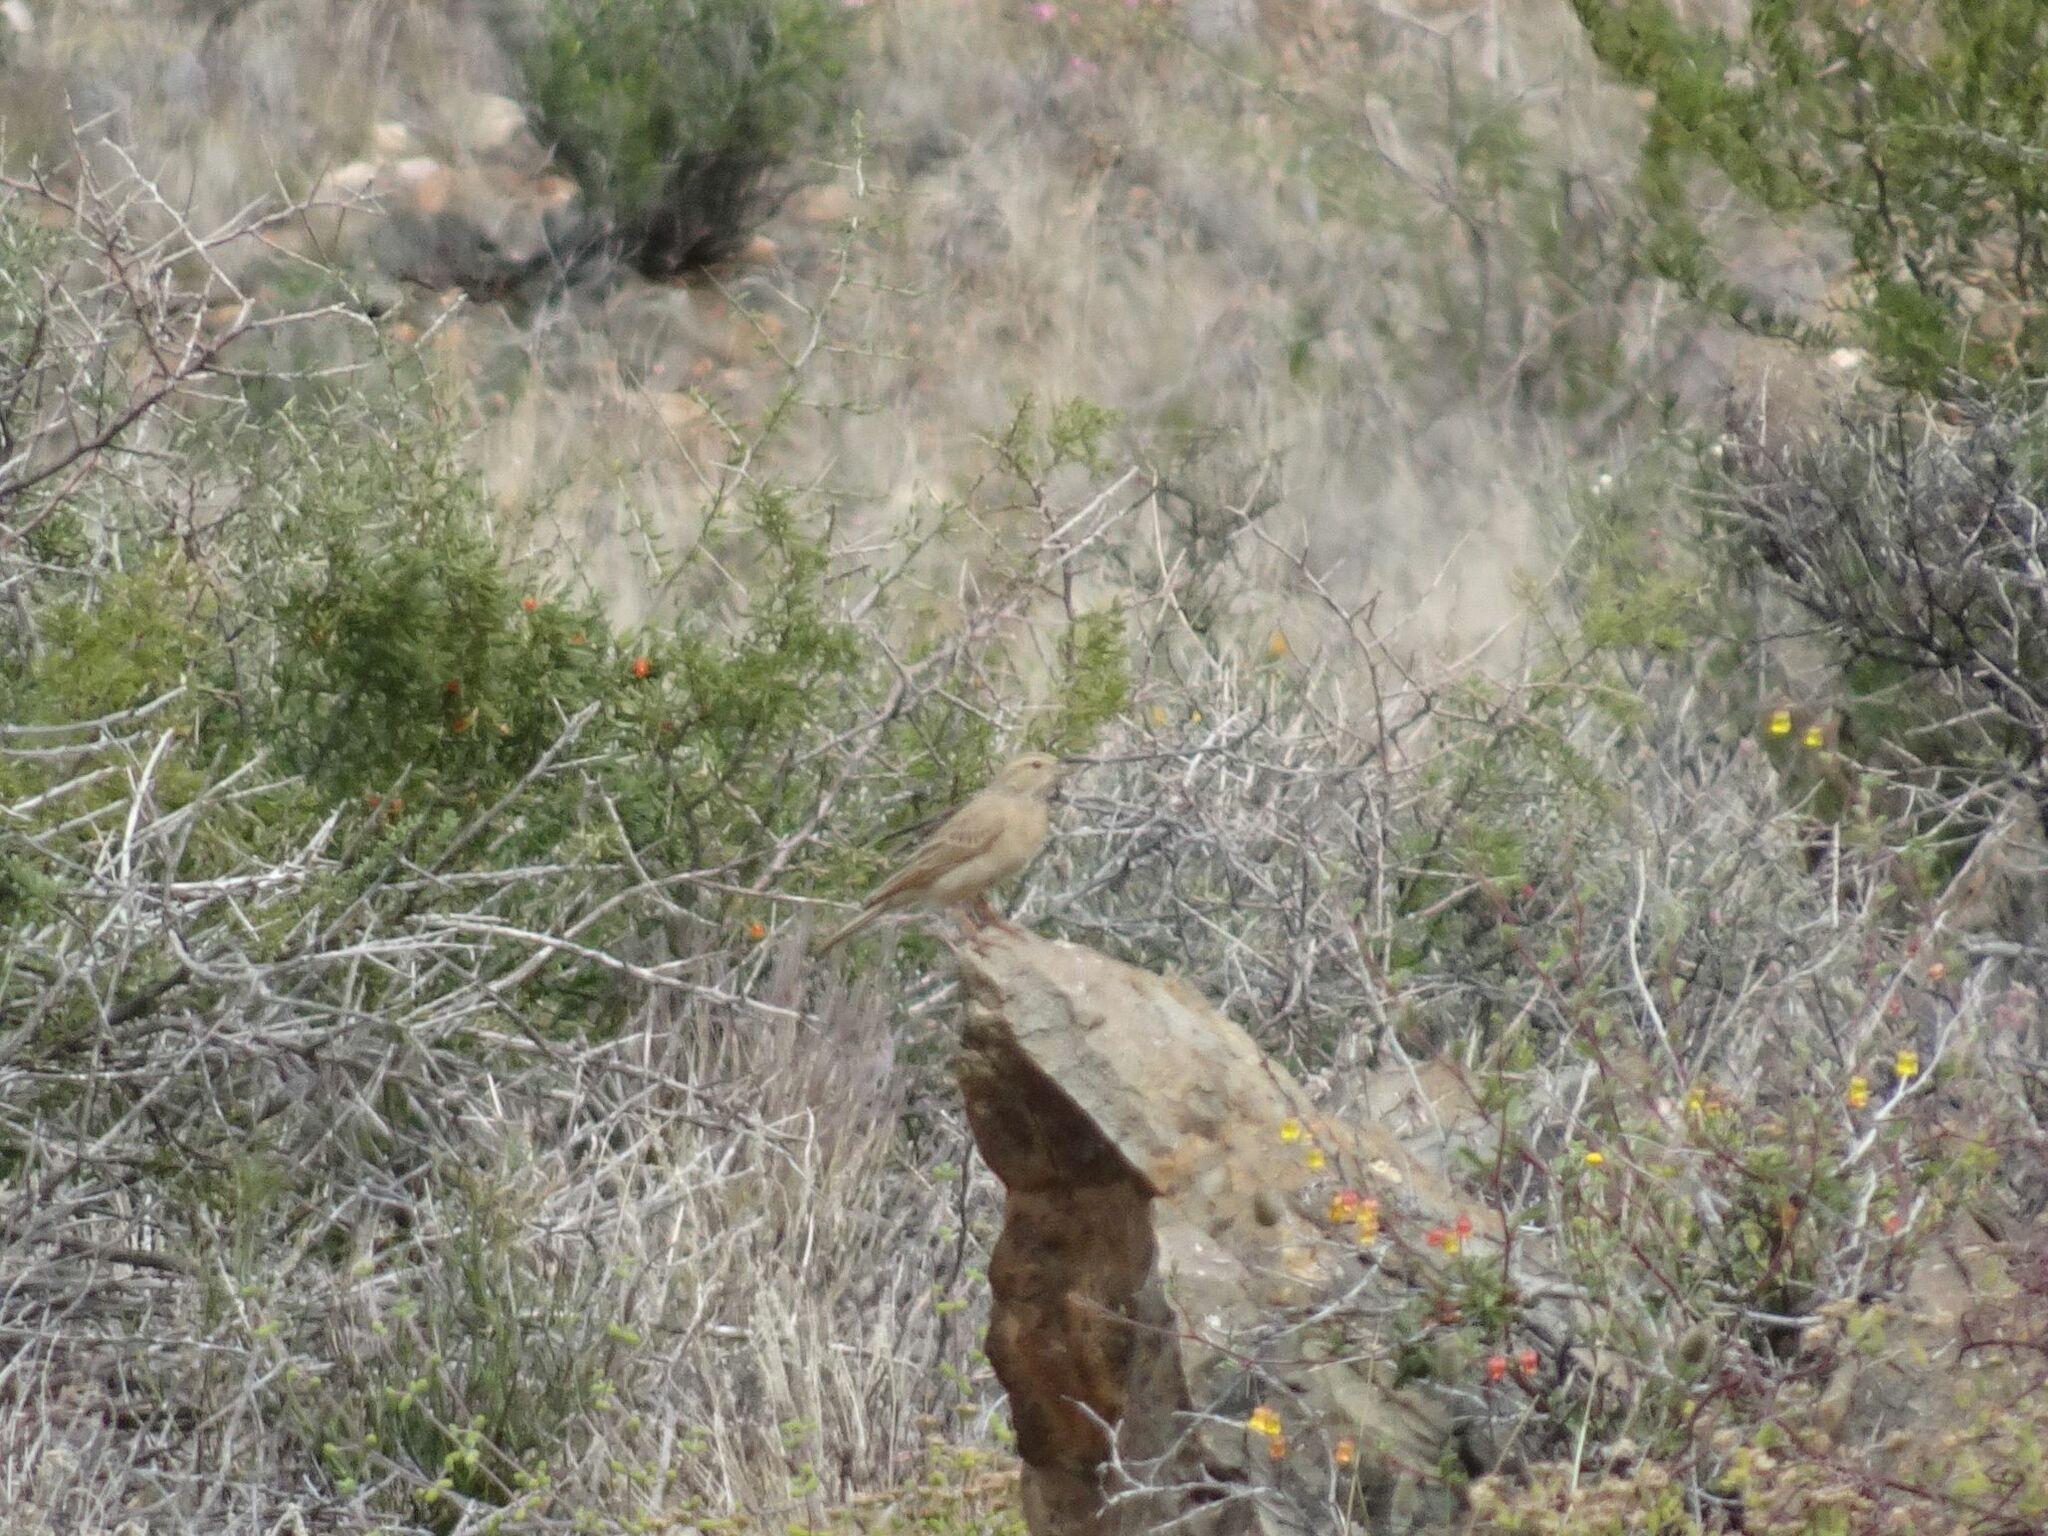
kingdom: Animalia
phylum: Chordata
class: Aves
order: Passeriformes
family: Emberizidae
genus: Emberiza
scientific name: Emberiza impetuani
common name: Lark-like bunting
